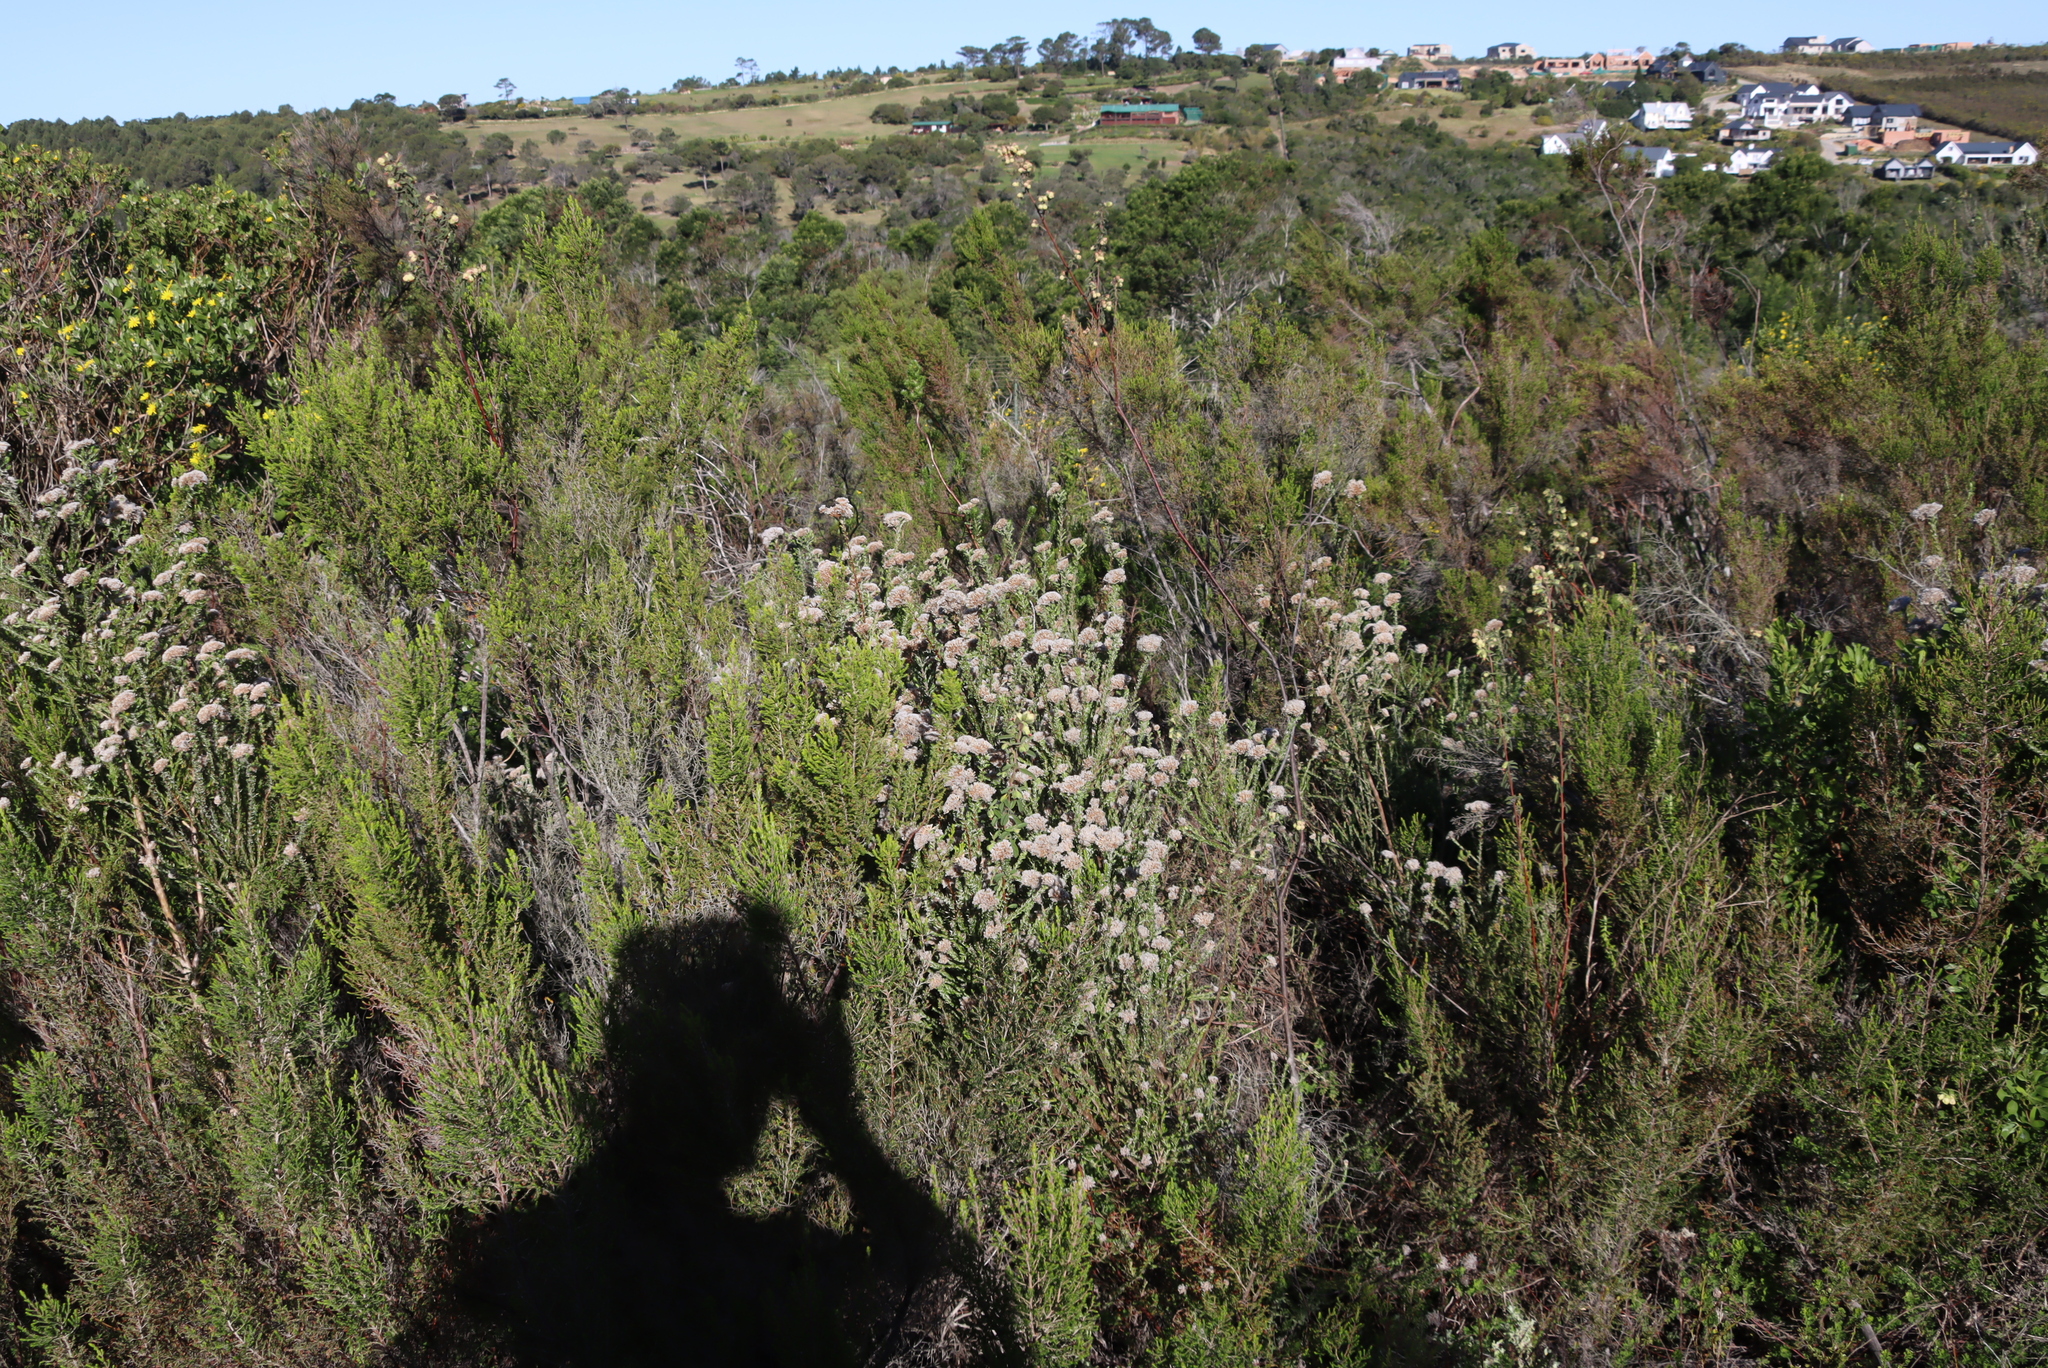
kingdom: Plantae
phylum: Tracheophyta
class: Magnoliopsida
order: Asterales
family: Asteraceae
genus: Metalasia
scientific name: Metalasia pungens
